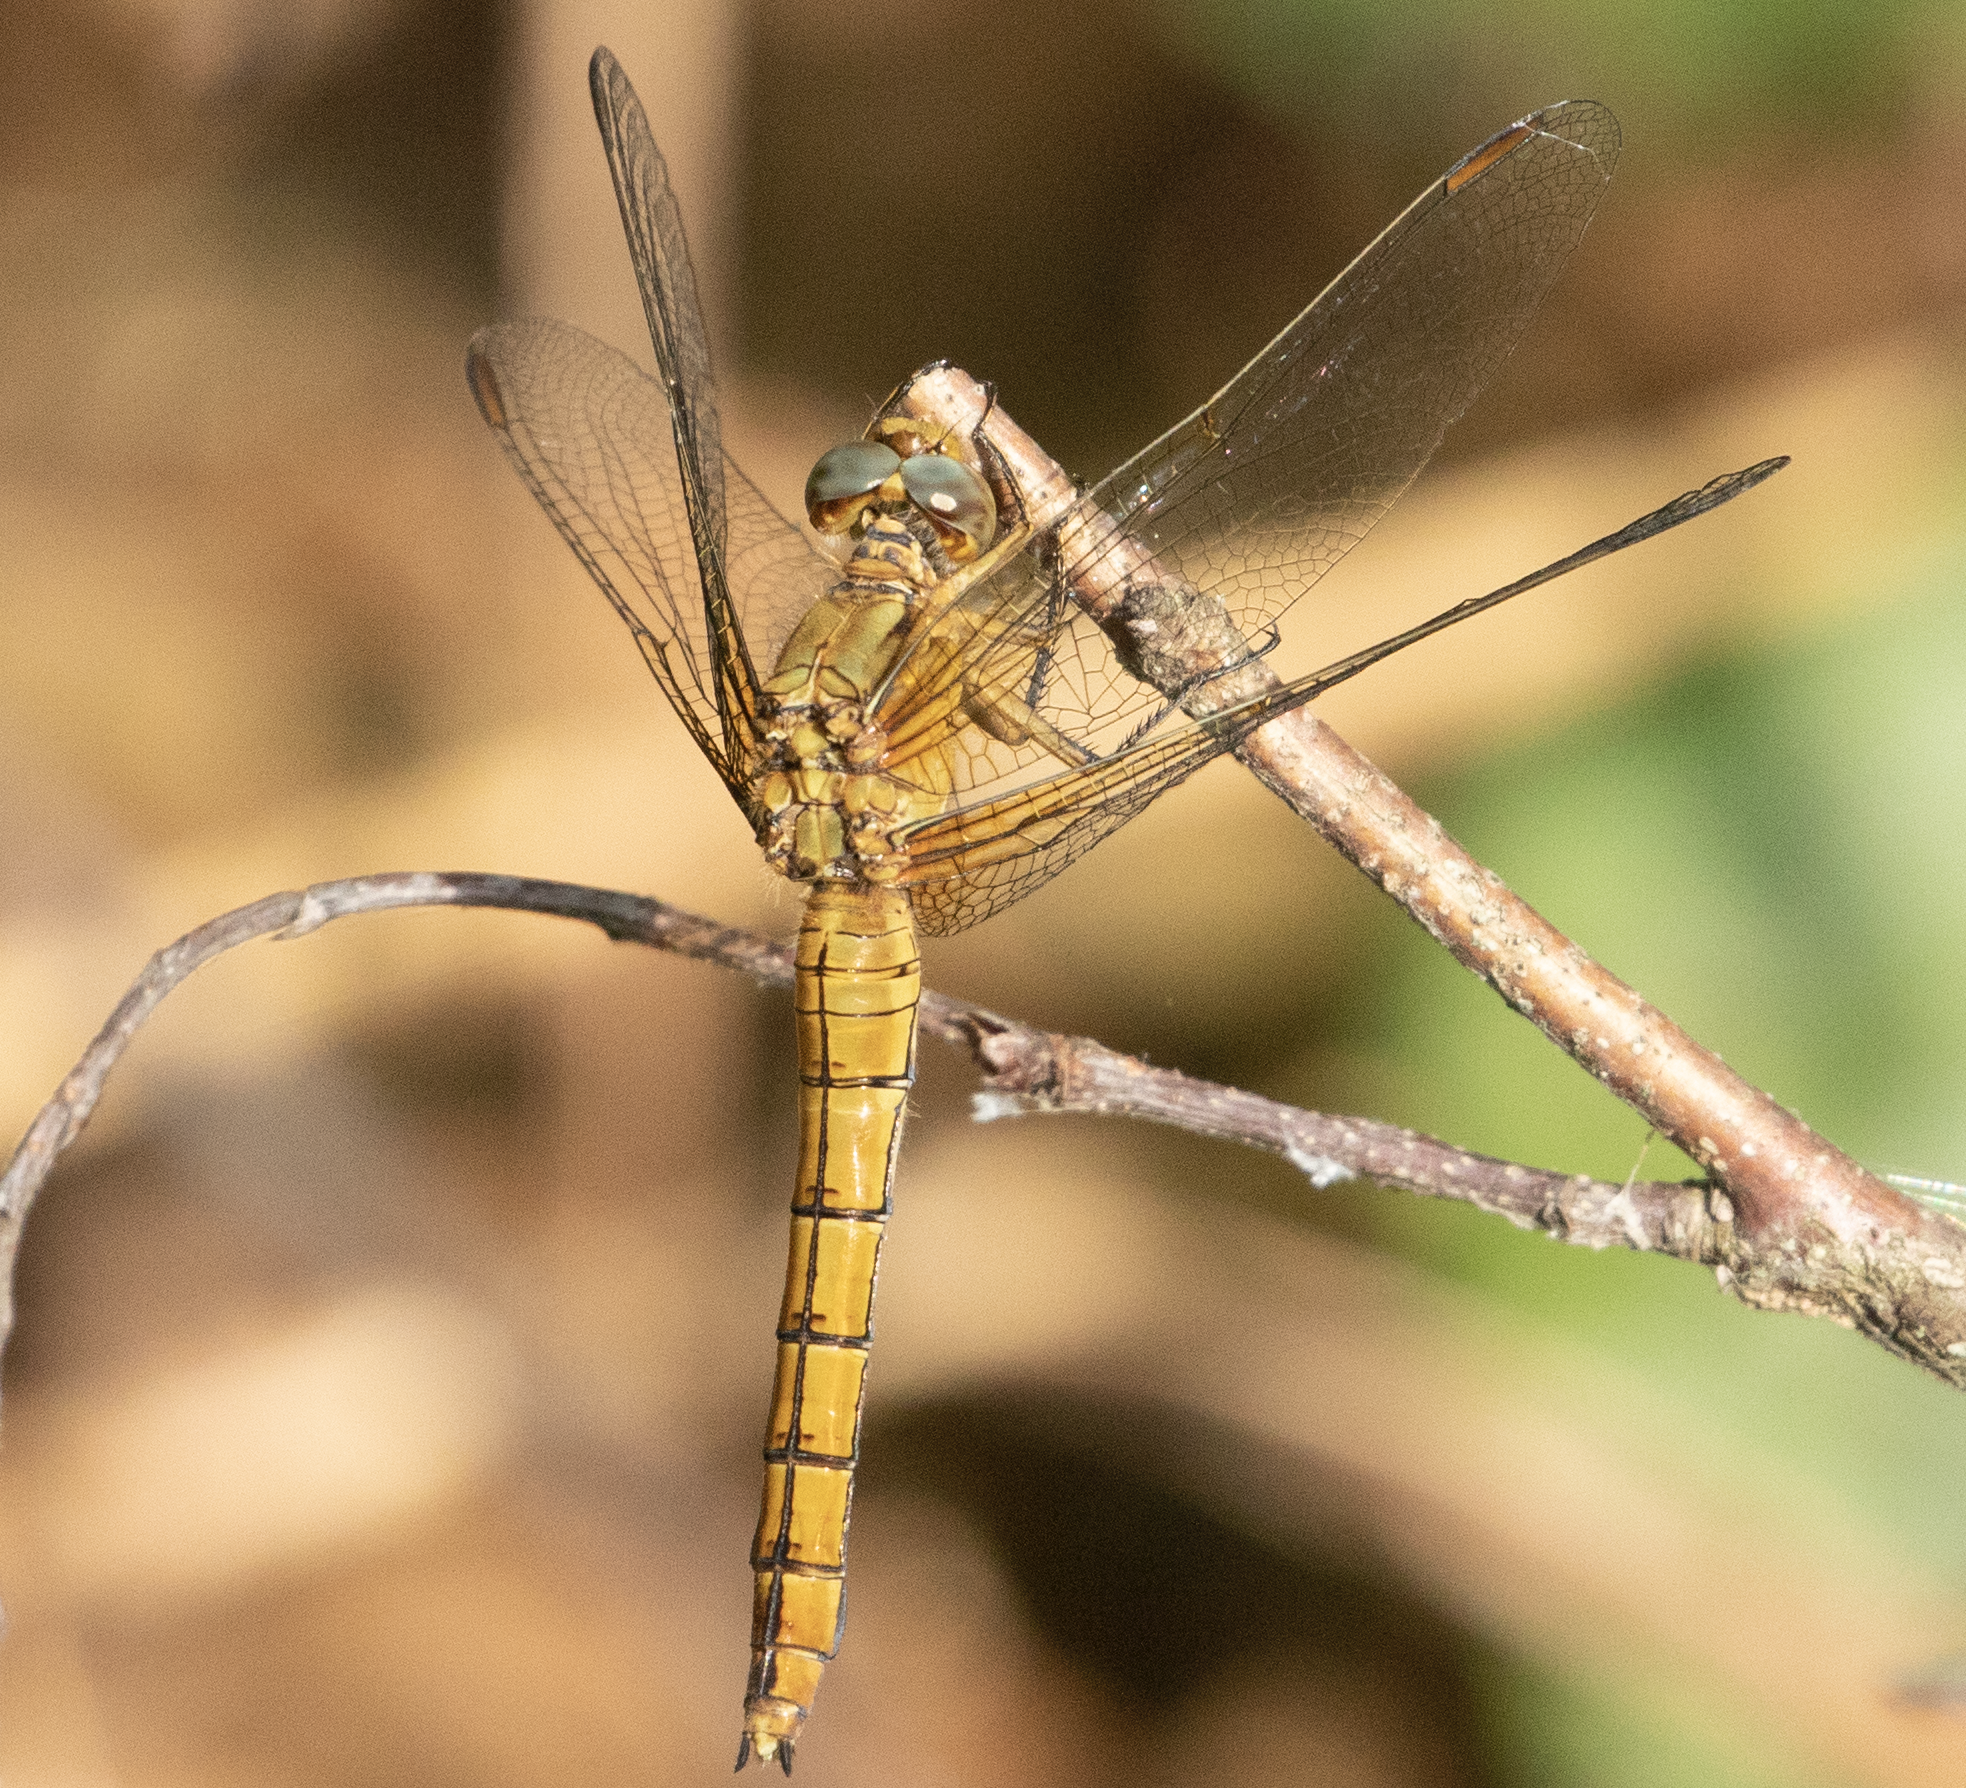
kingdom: Animalia
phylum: Arthropoda
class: Insecta
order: Odonata
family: Libellulidae
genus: Orthetrum
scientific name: Orthetrum coerulescens
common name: Keeled skimmer
